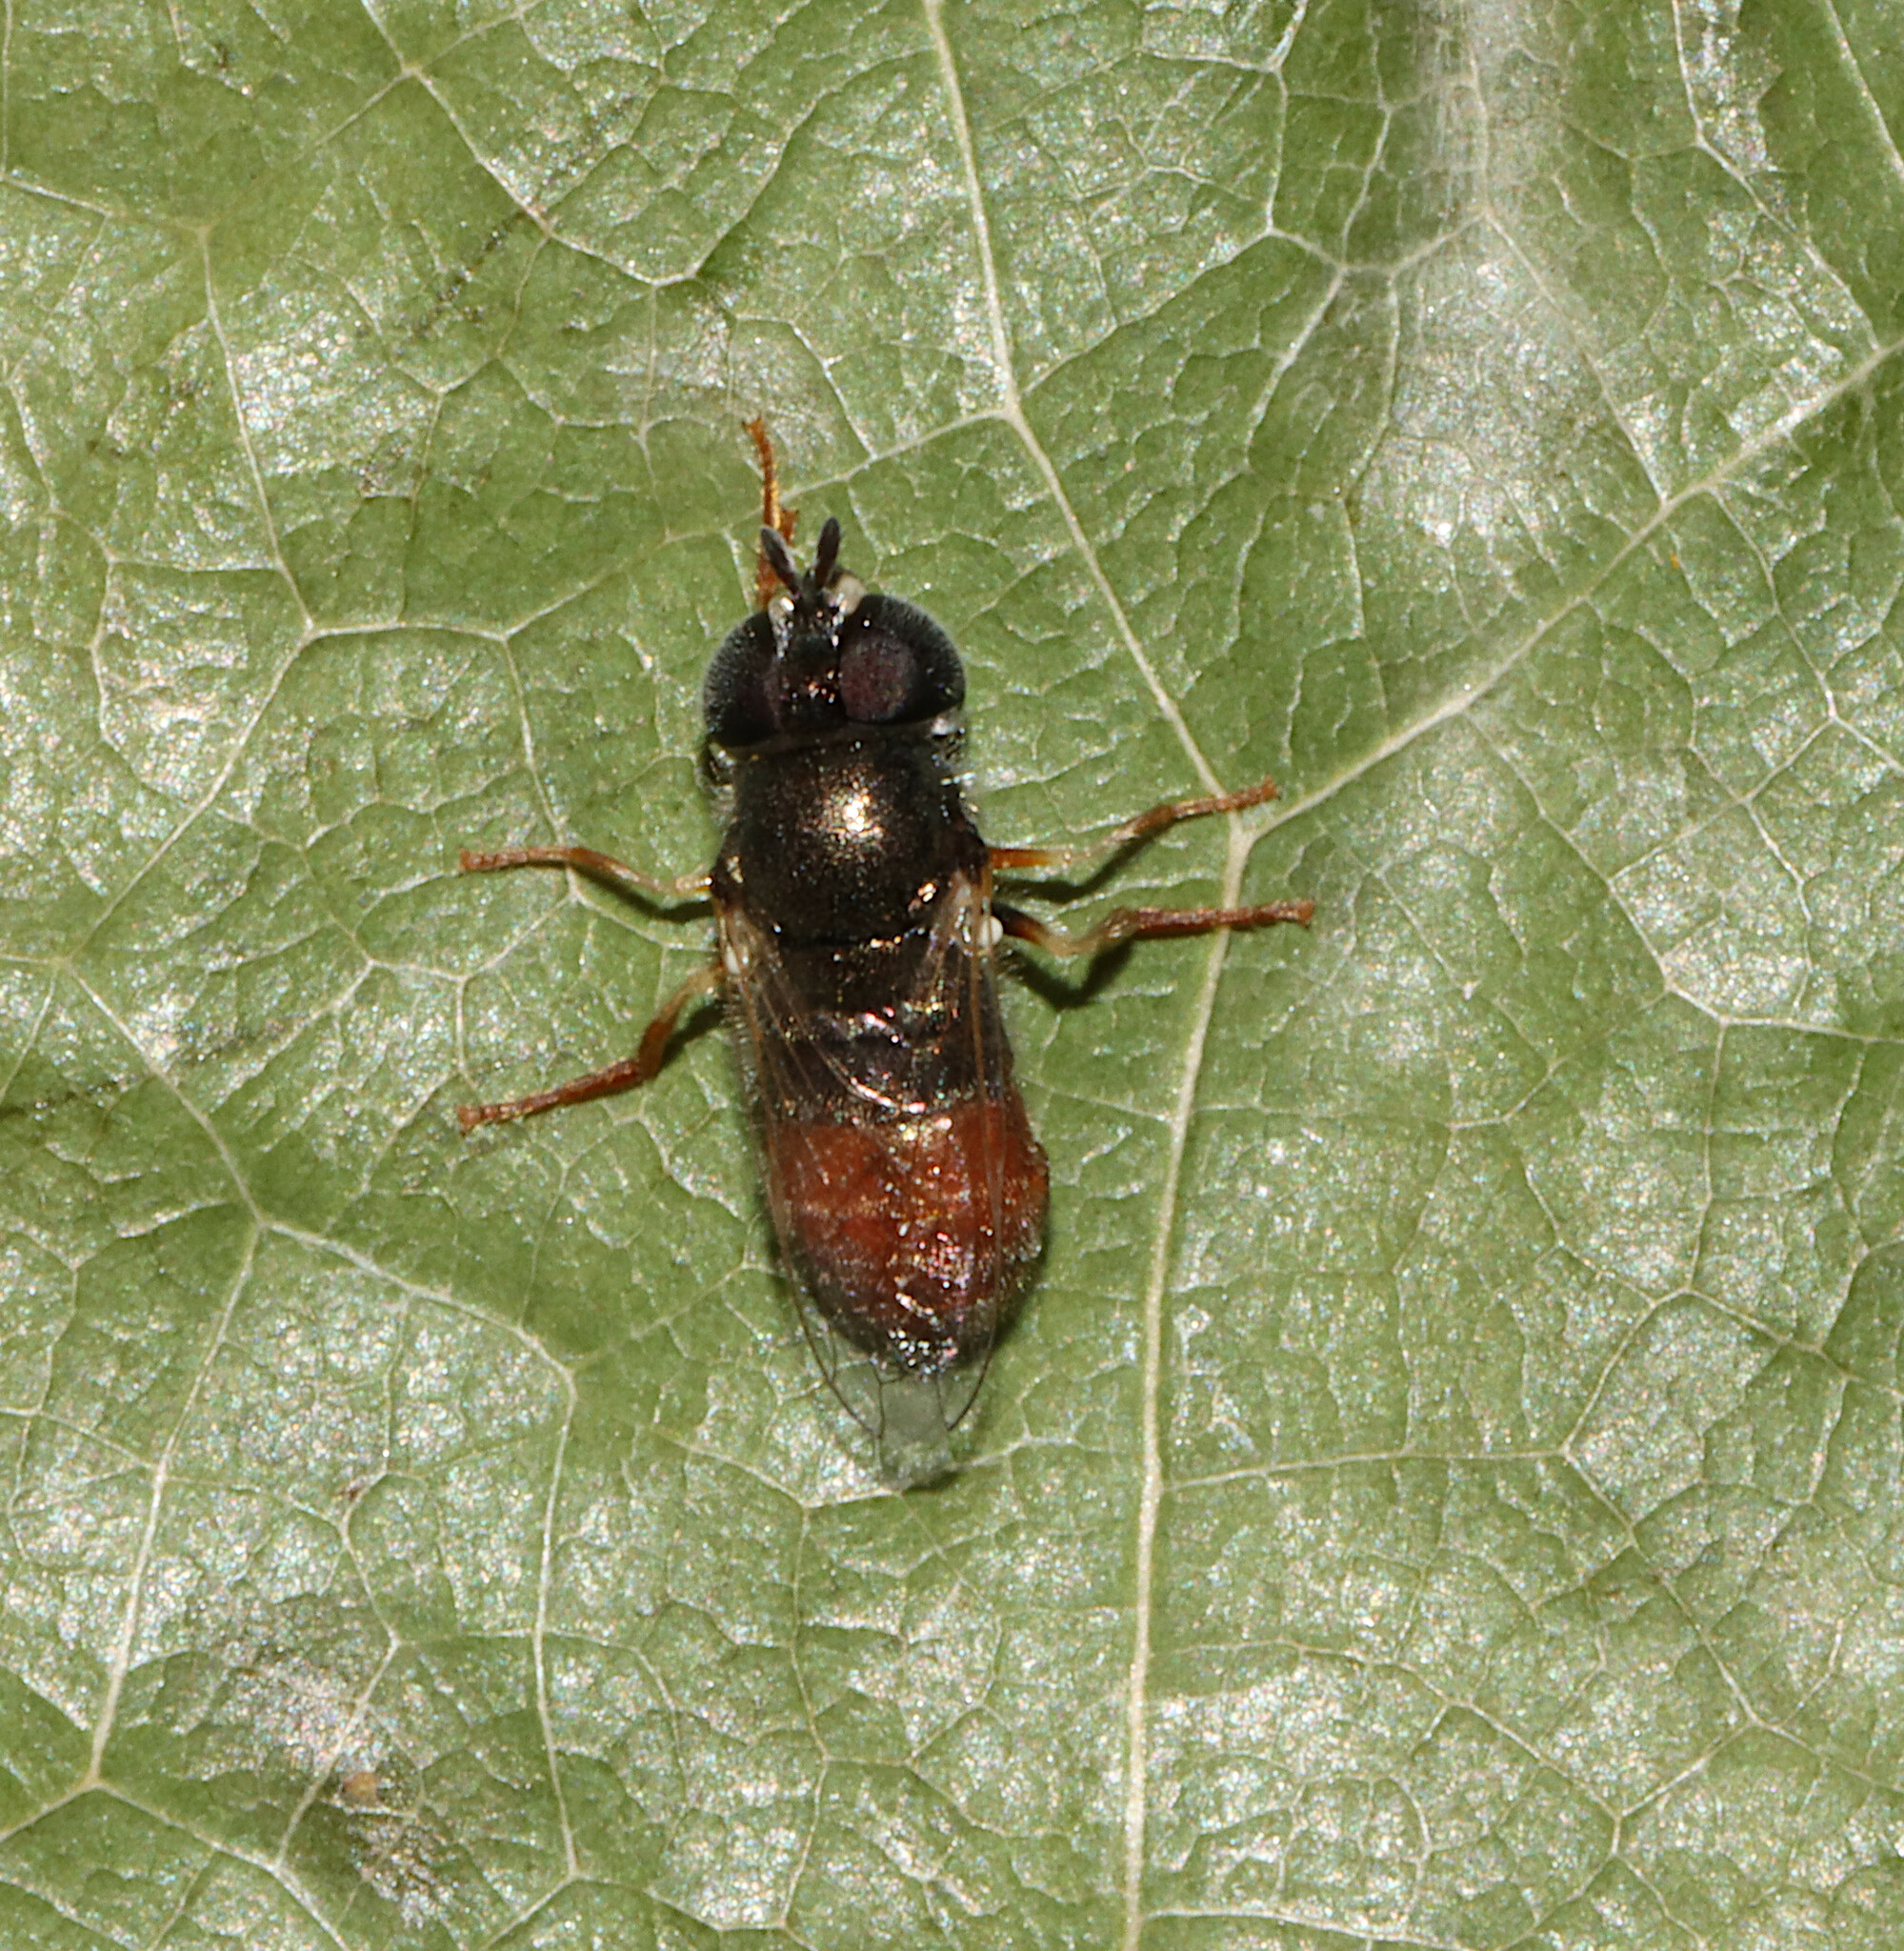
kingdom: Animalia
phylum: Arthropoda
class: Insecta
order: Diptera
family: Syrphidae
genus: Paragus
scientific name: Paragus haemorrhous
